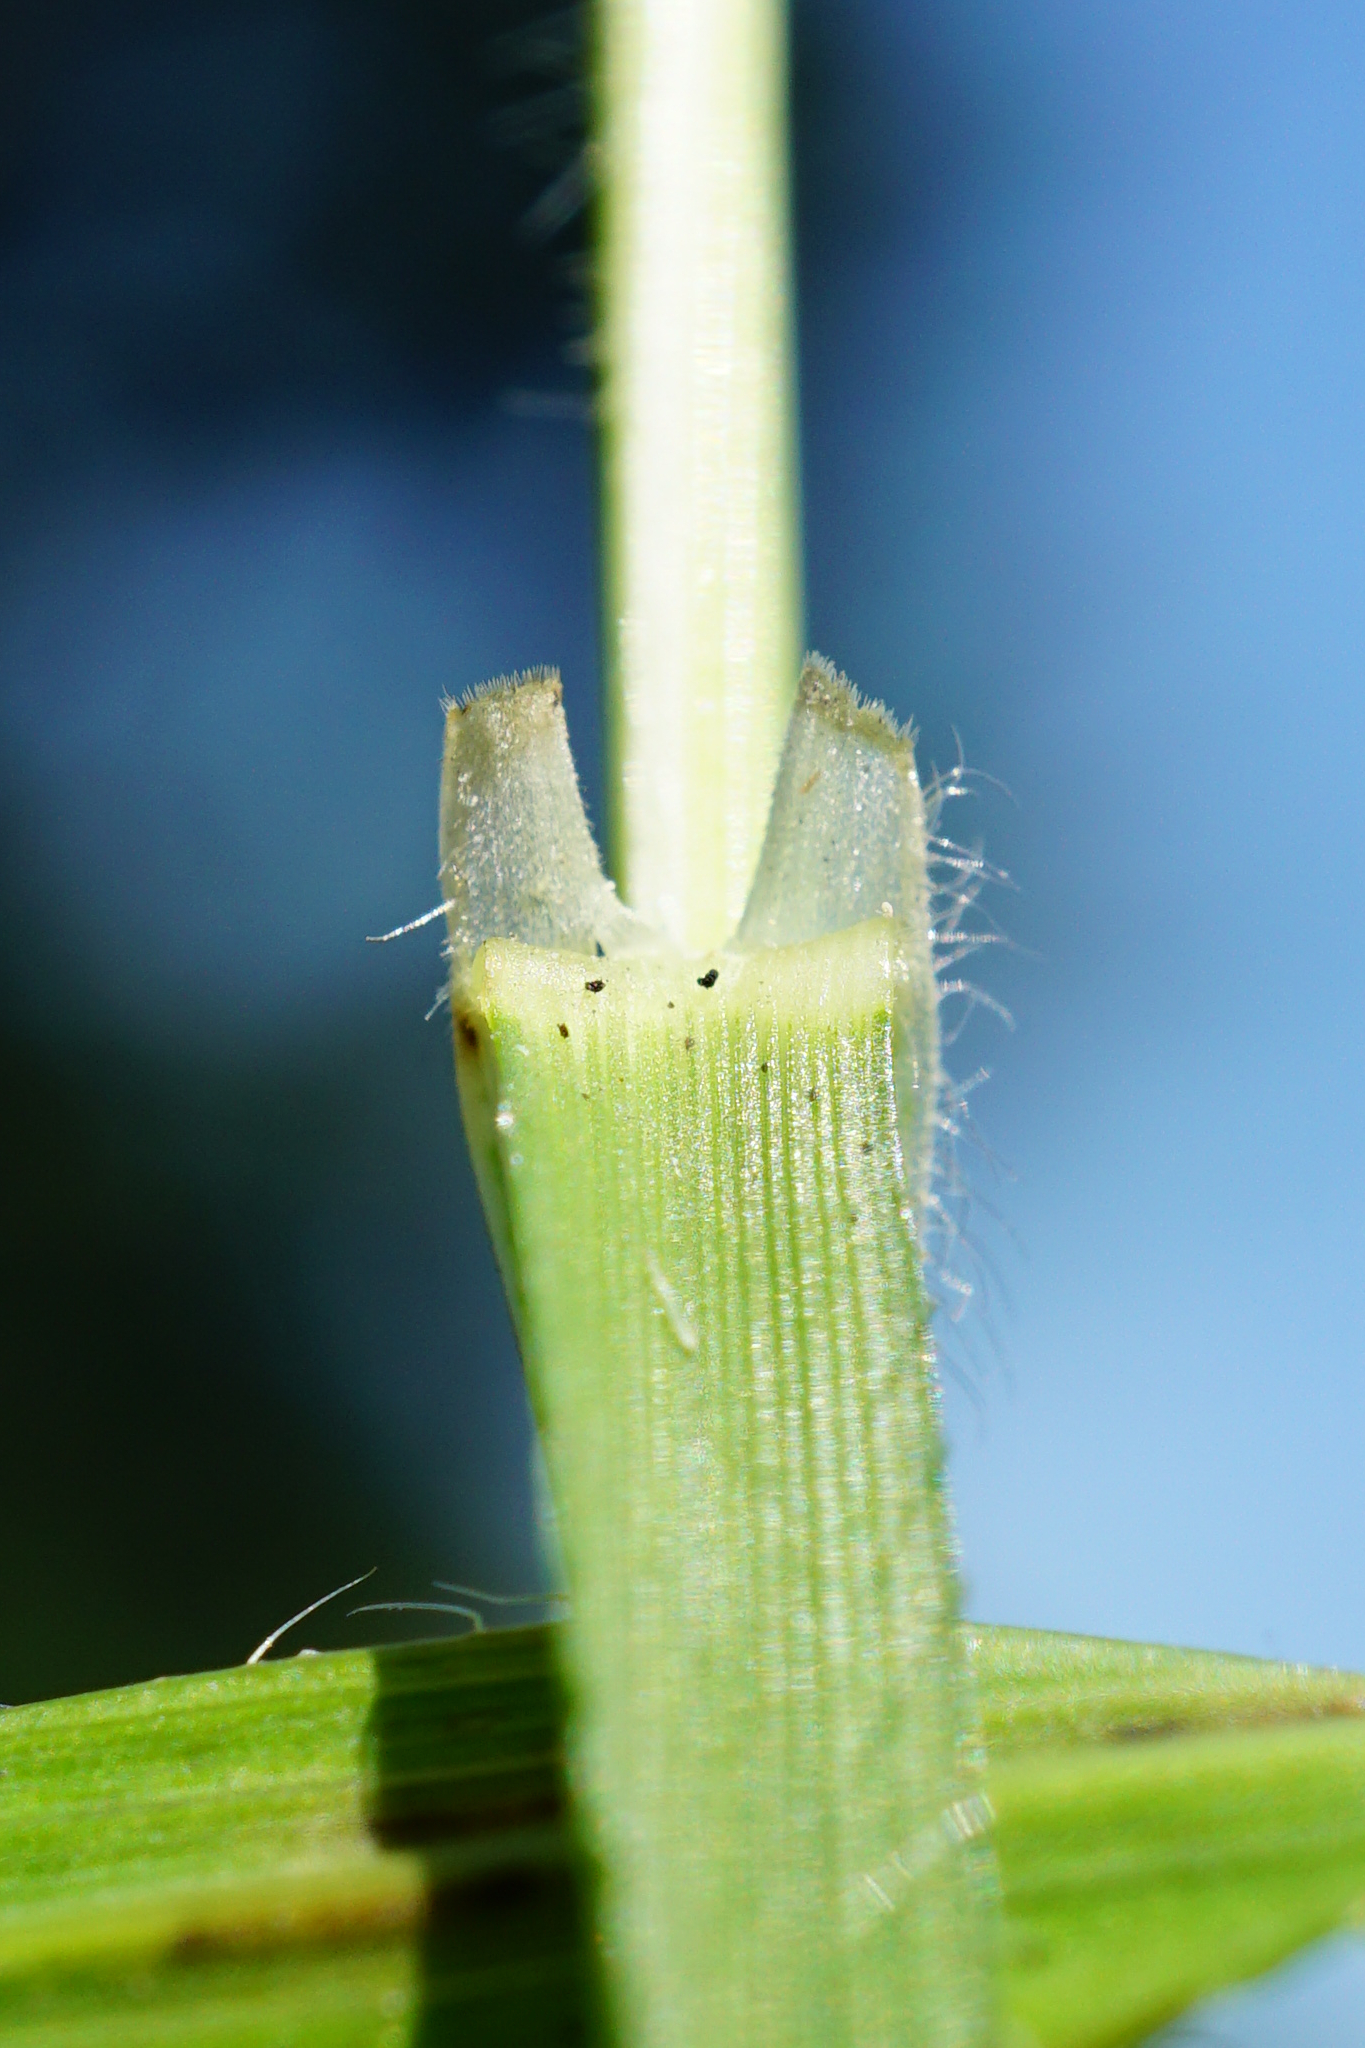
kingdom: Plantae
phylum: Tracheophyta
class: Liliopsida
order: Poales
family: Poaceae
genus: Bromus
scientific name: Bromus erectus
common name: Erect brome
